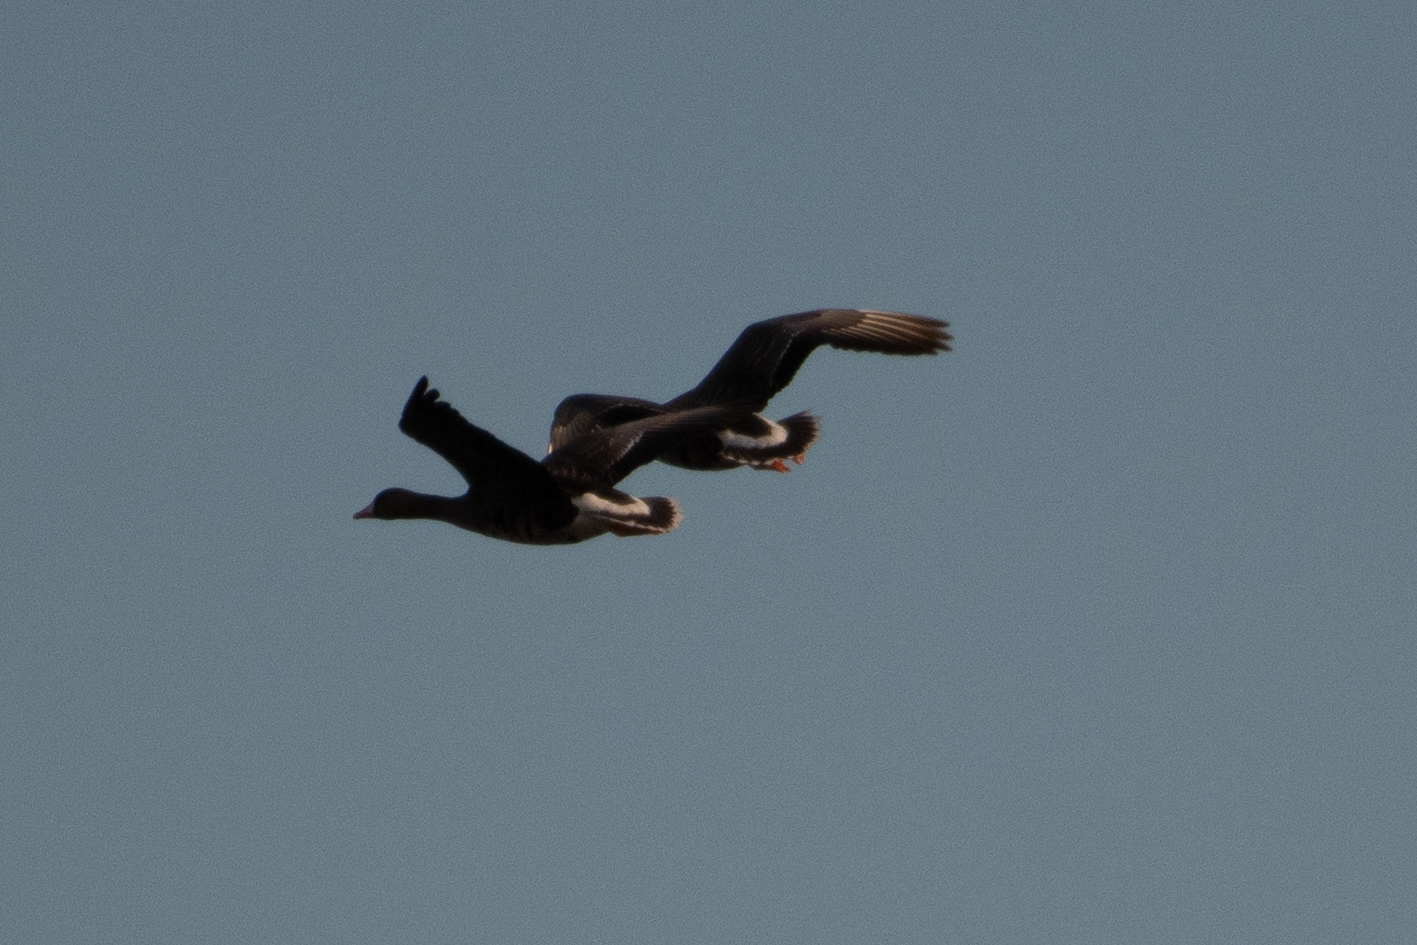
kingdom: Animalia
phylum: Chordata
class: Aves
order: Anseriformes
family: Anatidae
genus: Anser
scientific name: Anser albifrons
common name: Greater white-fronted goose
